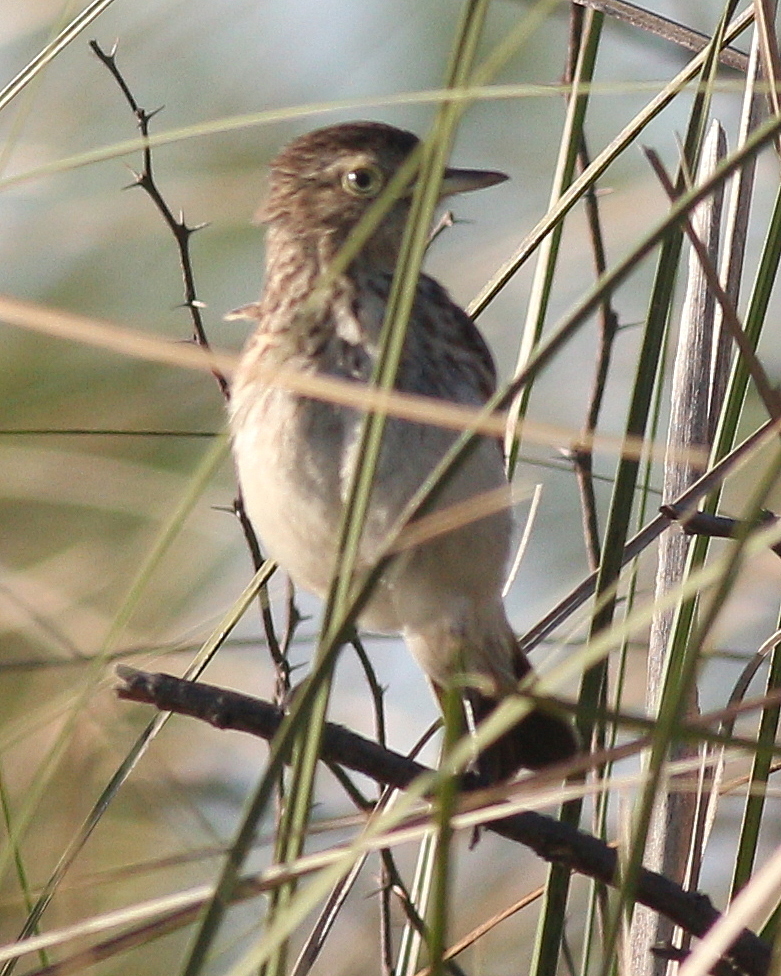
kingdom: Animalia
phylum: Chordata
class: Aves
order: Passeriformes
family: Tyrannidae
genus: Hymenops
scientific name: Hymenops perspicillatus
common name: Spectacled tyrant
